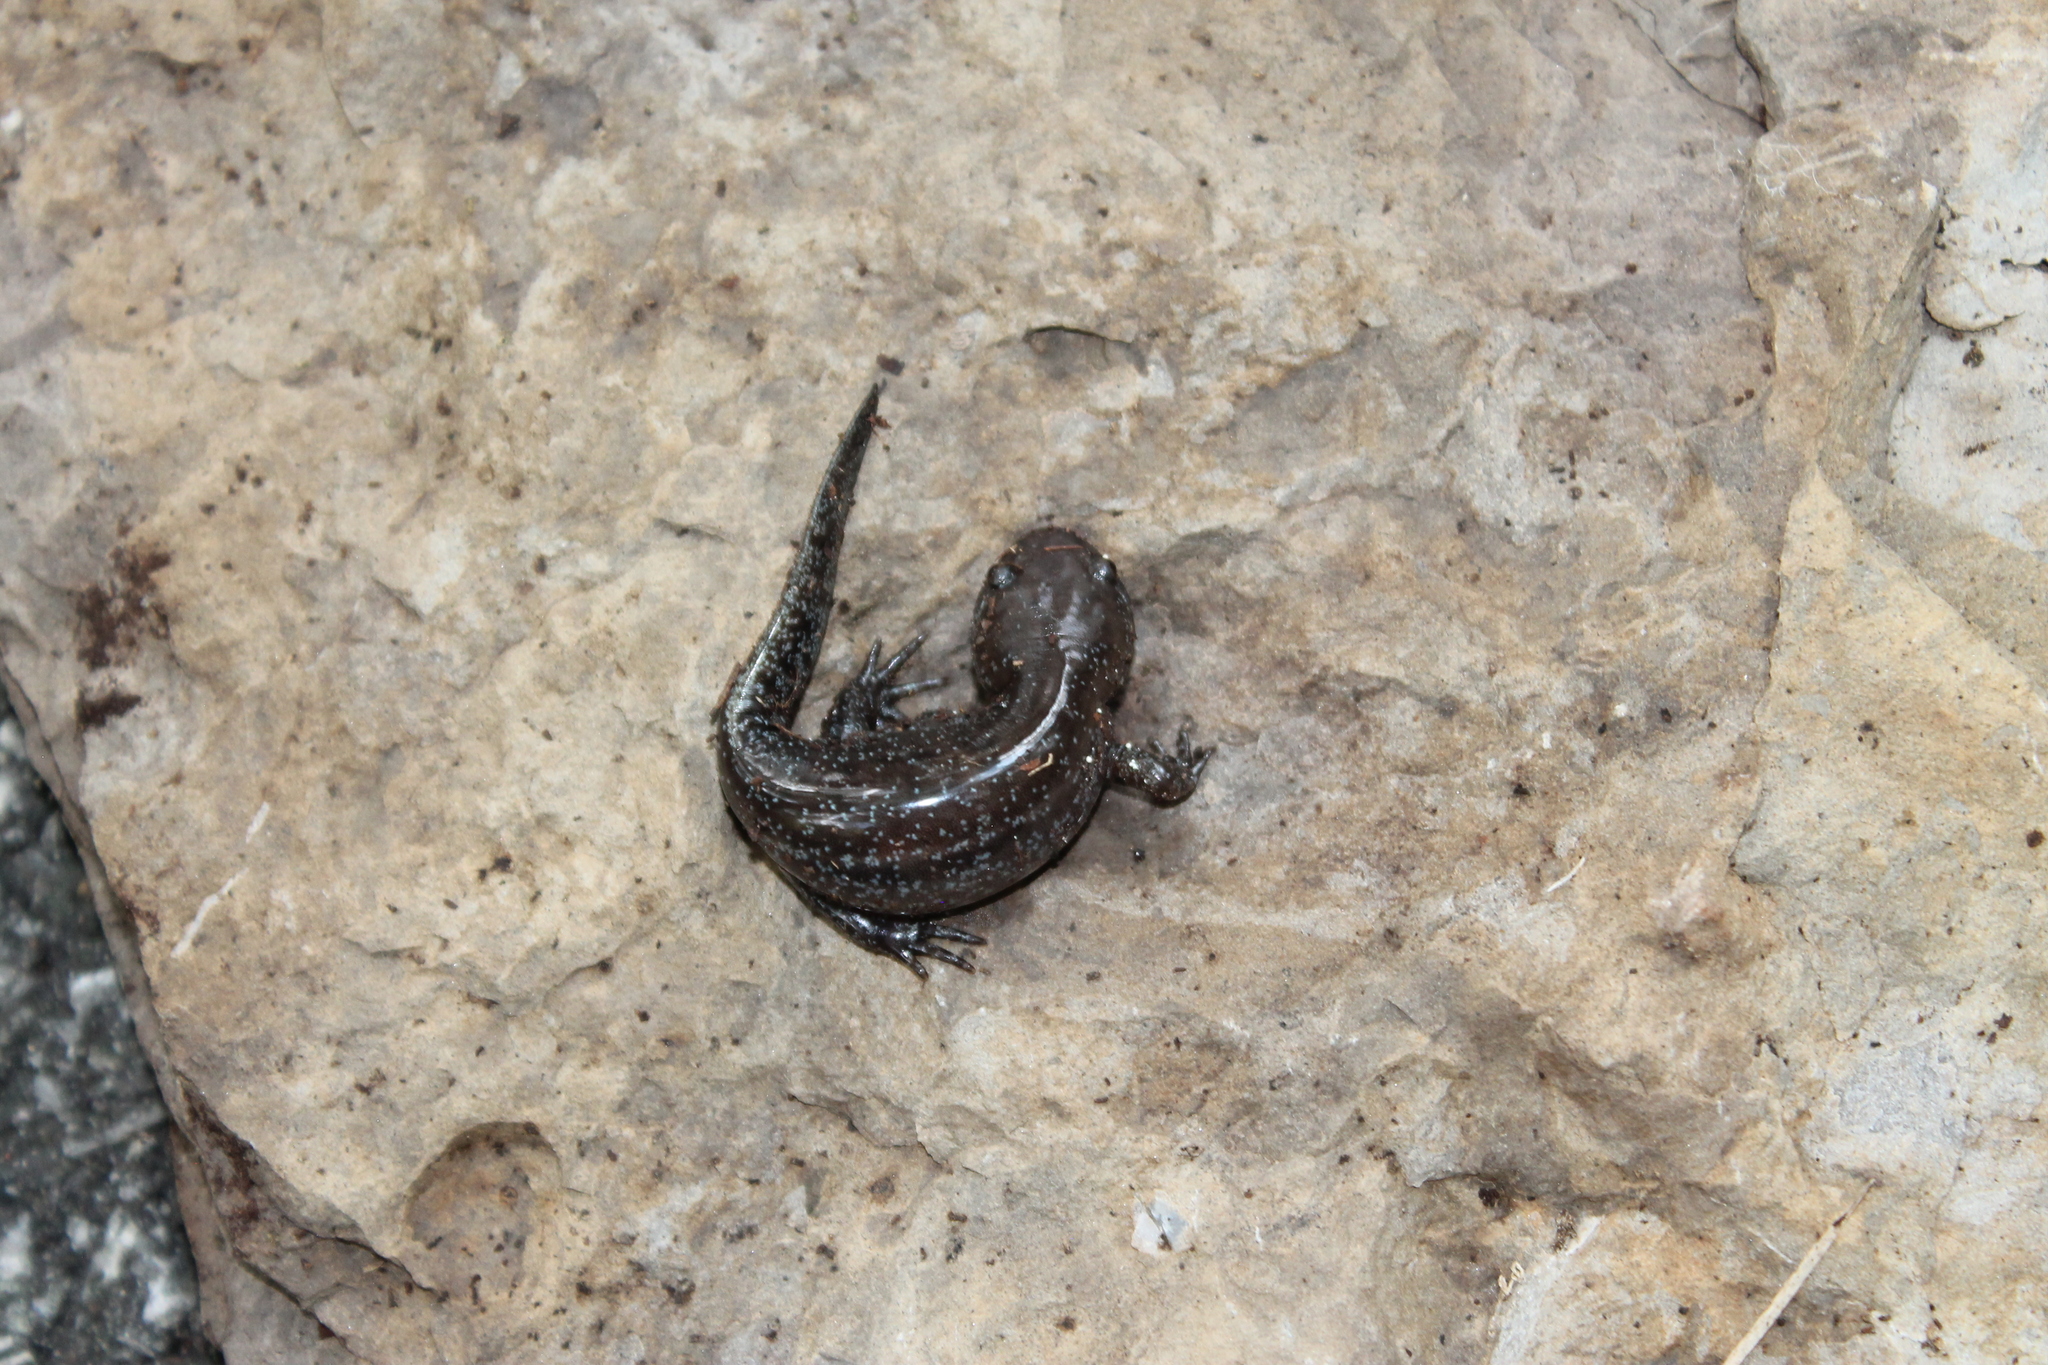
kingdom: Animalia
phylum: Chordata
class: Amphibia
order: Caudata
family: Ambystomatidae
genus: Ambystoma
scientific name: Ambystoma talpoideum
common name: Mole salamander
